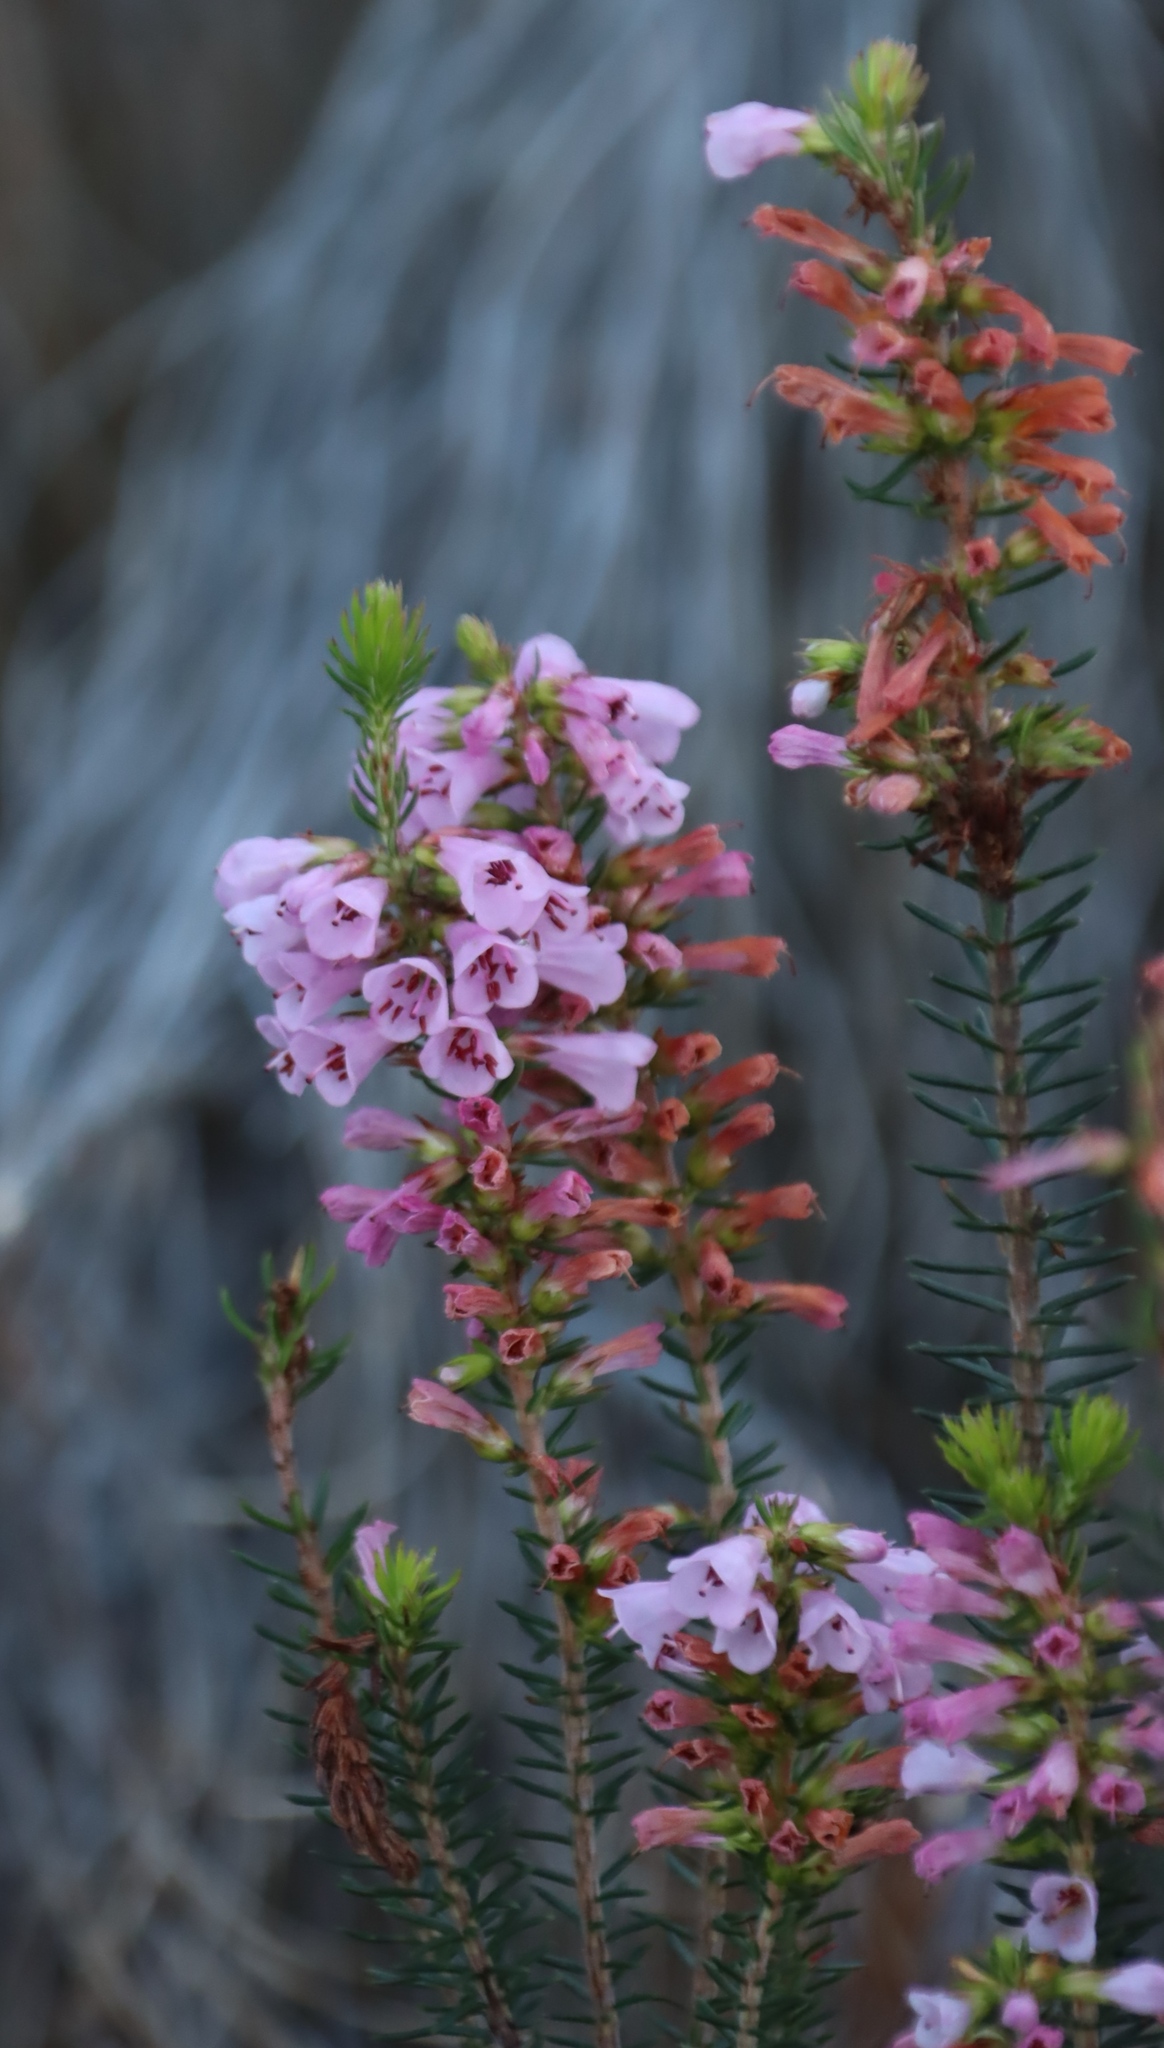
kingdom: Plantae
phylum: Tracheophyta
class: Magnoliopsida
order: Ericales
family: Ericaceae
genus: Erica
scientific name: Erica abietina
